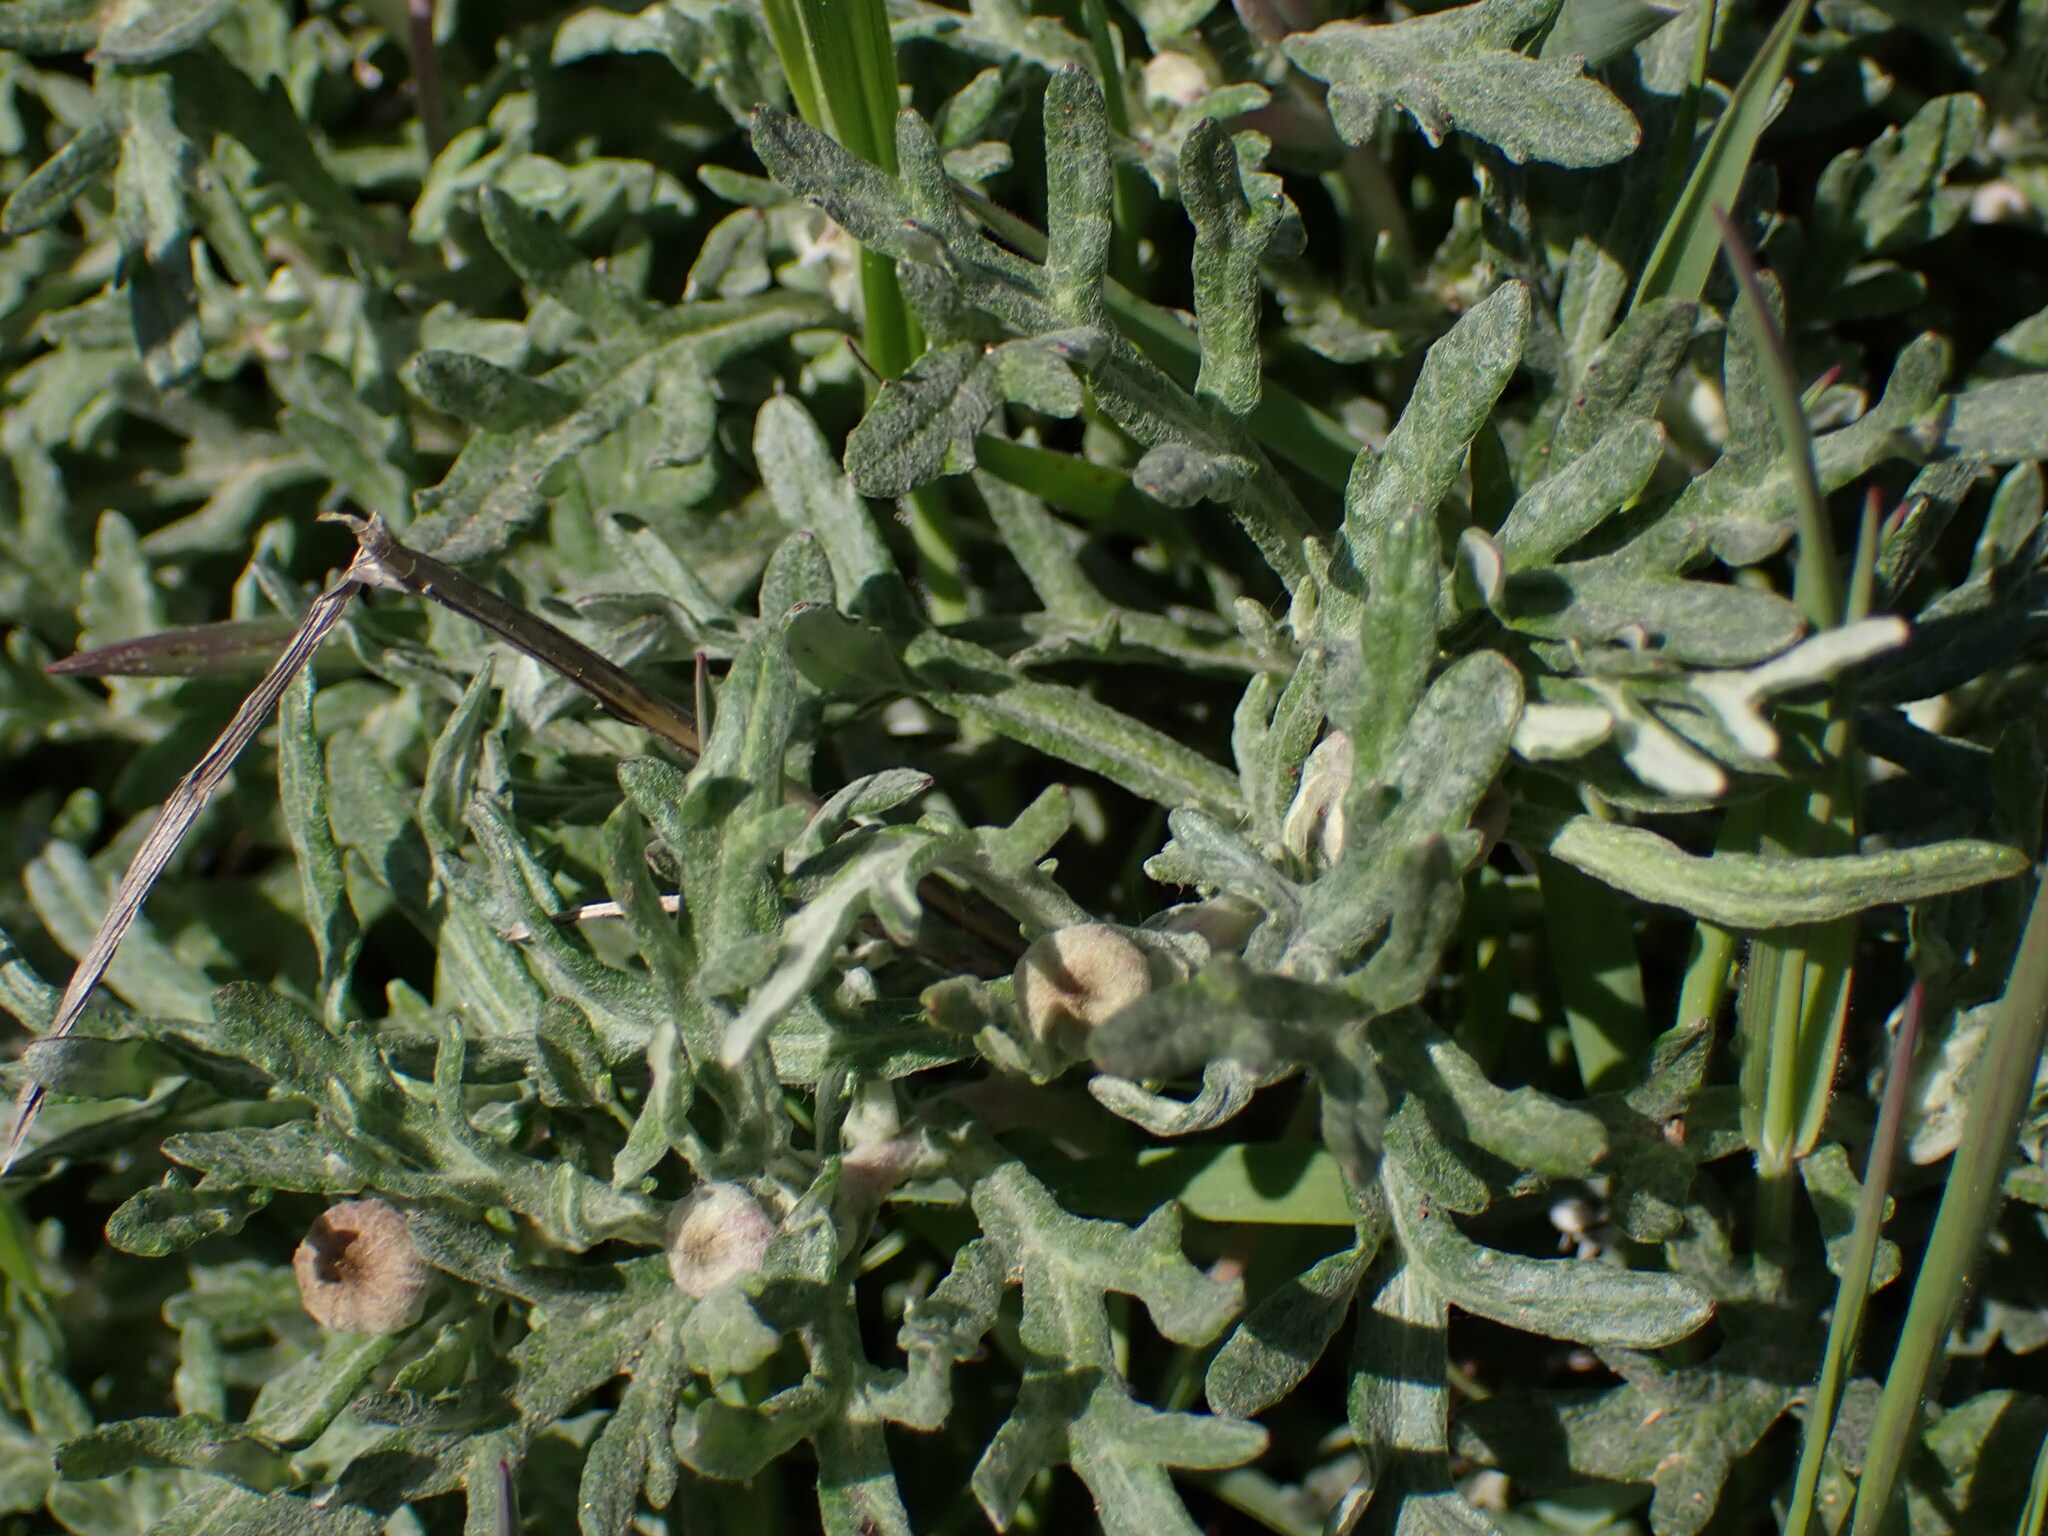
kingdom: Plantae
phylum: Tracheophyta
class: Magnoliopsida
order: Asterales
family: Asteraceae
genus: Eriophyllum
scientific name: Eriophyllum lanatum
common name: Common woolly-sunflower
